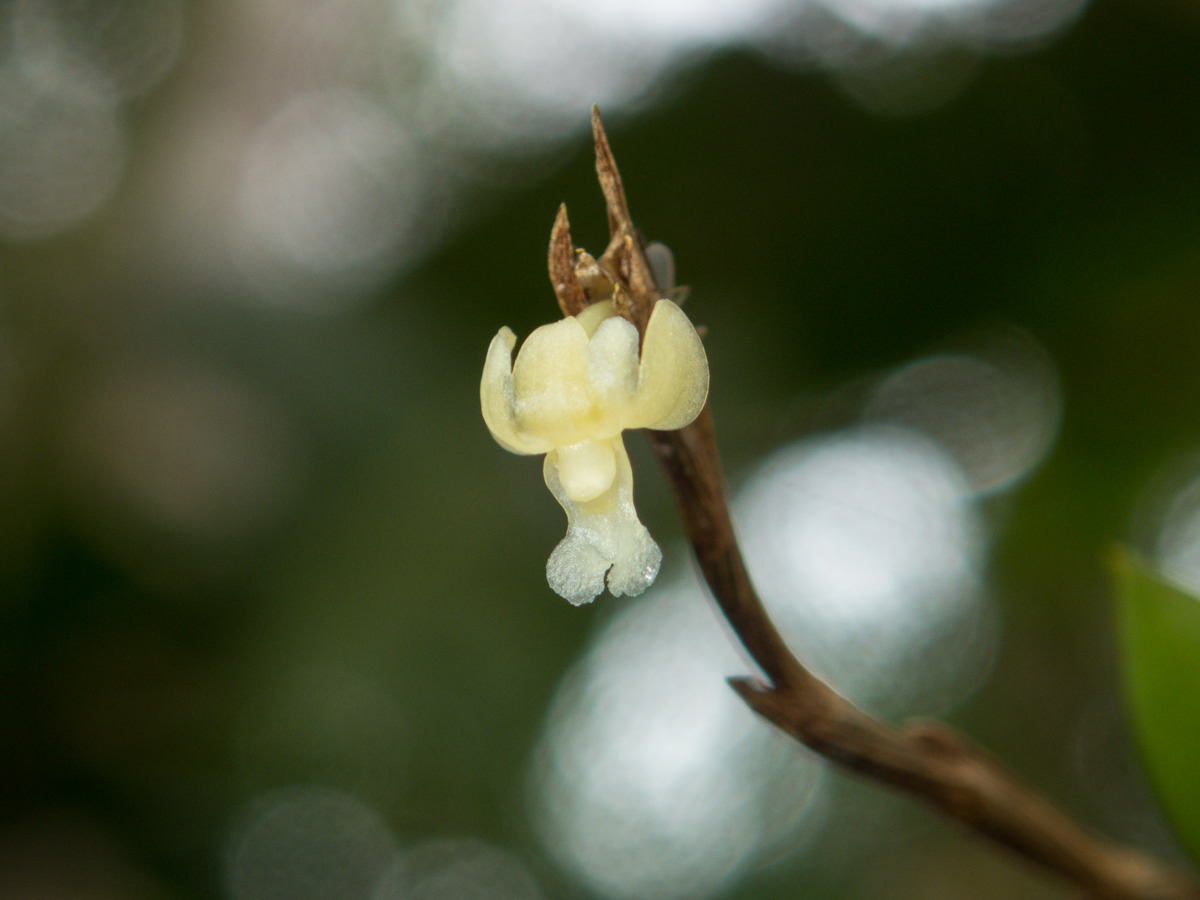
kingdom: Plantae
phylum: Tracheophyta
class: Liliopsida
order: Asparagales
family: Orchidaceae
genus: Dendrobium
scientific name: Dendrobium aloifolium
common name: Aloe-like dendrobium
